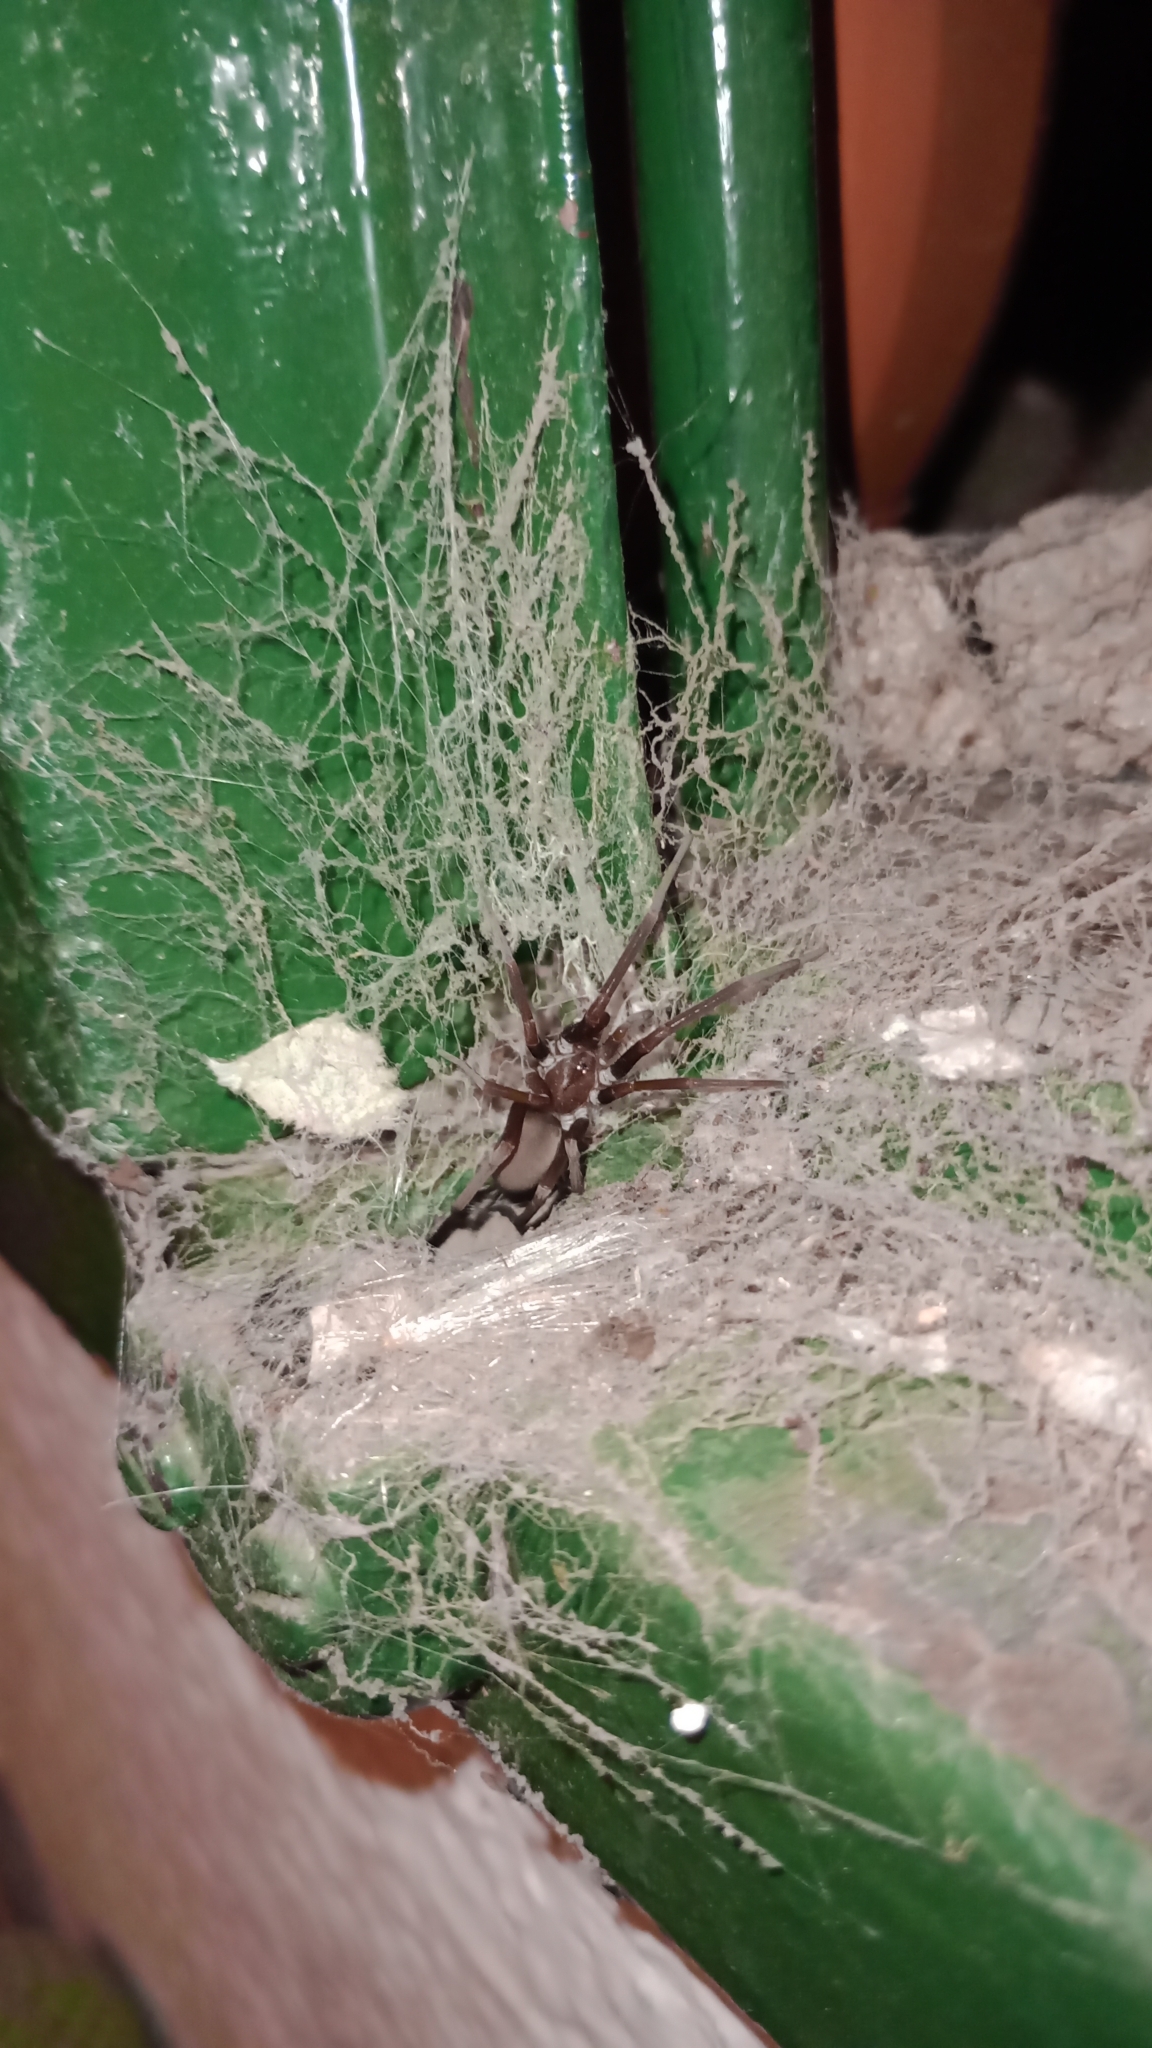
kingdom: Animalia
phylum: Arthropoda
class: Arachnida
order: Araneae
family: Filistatidae
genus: Kukulcania
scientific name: Kukulcania hibernalis
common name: Crevice weaver
